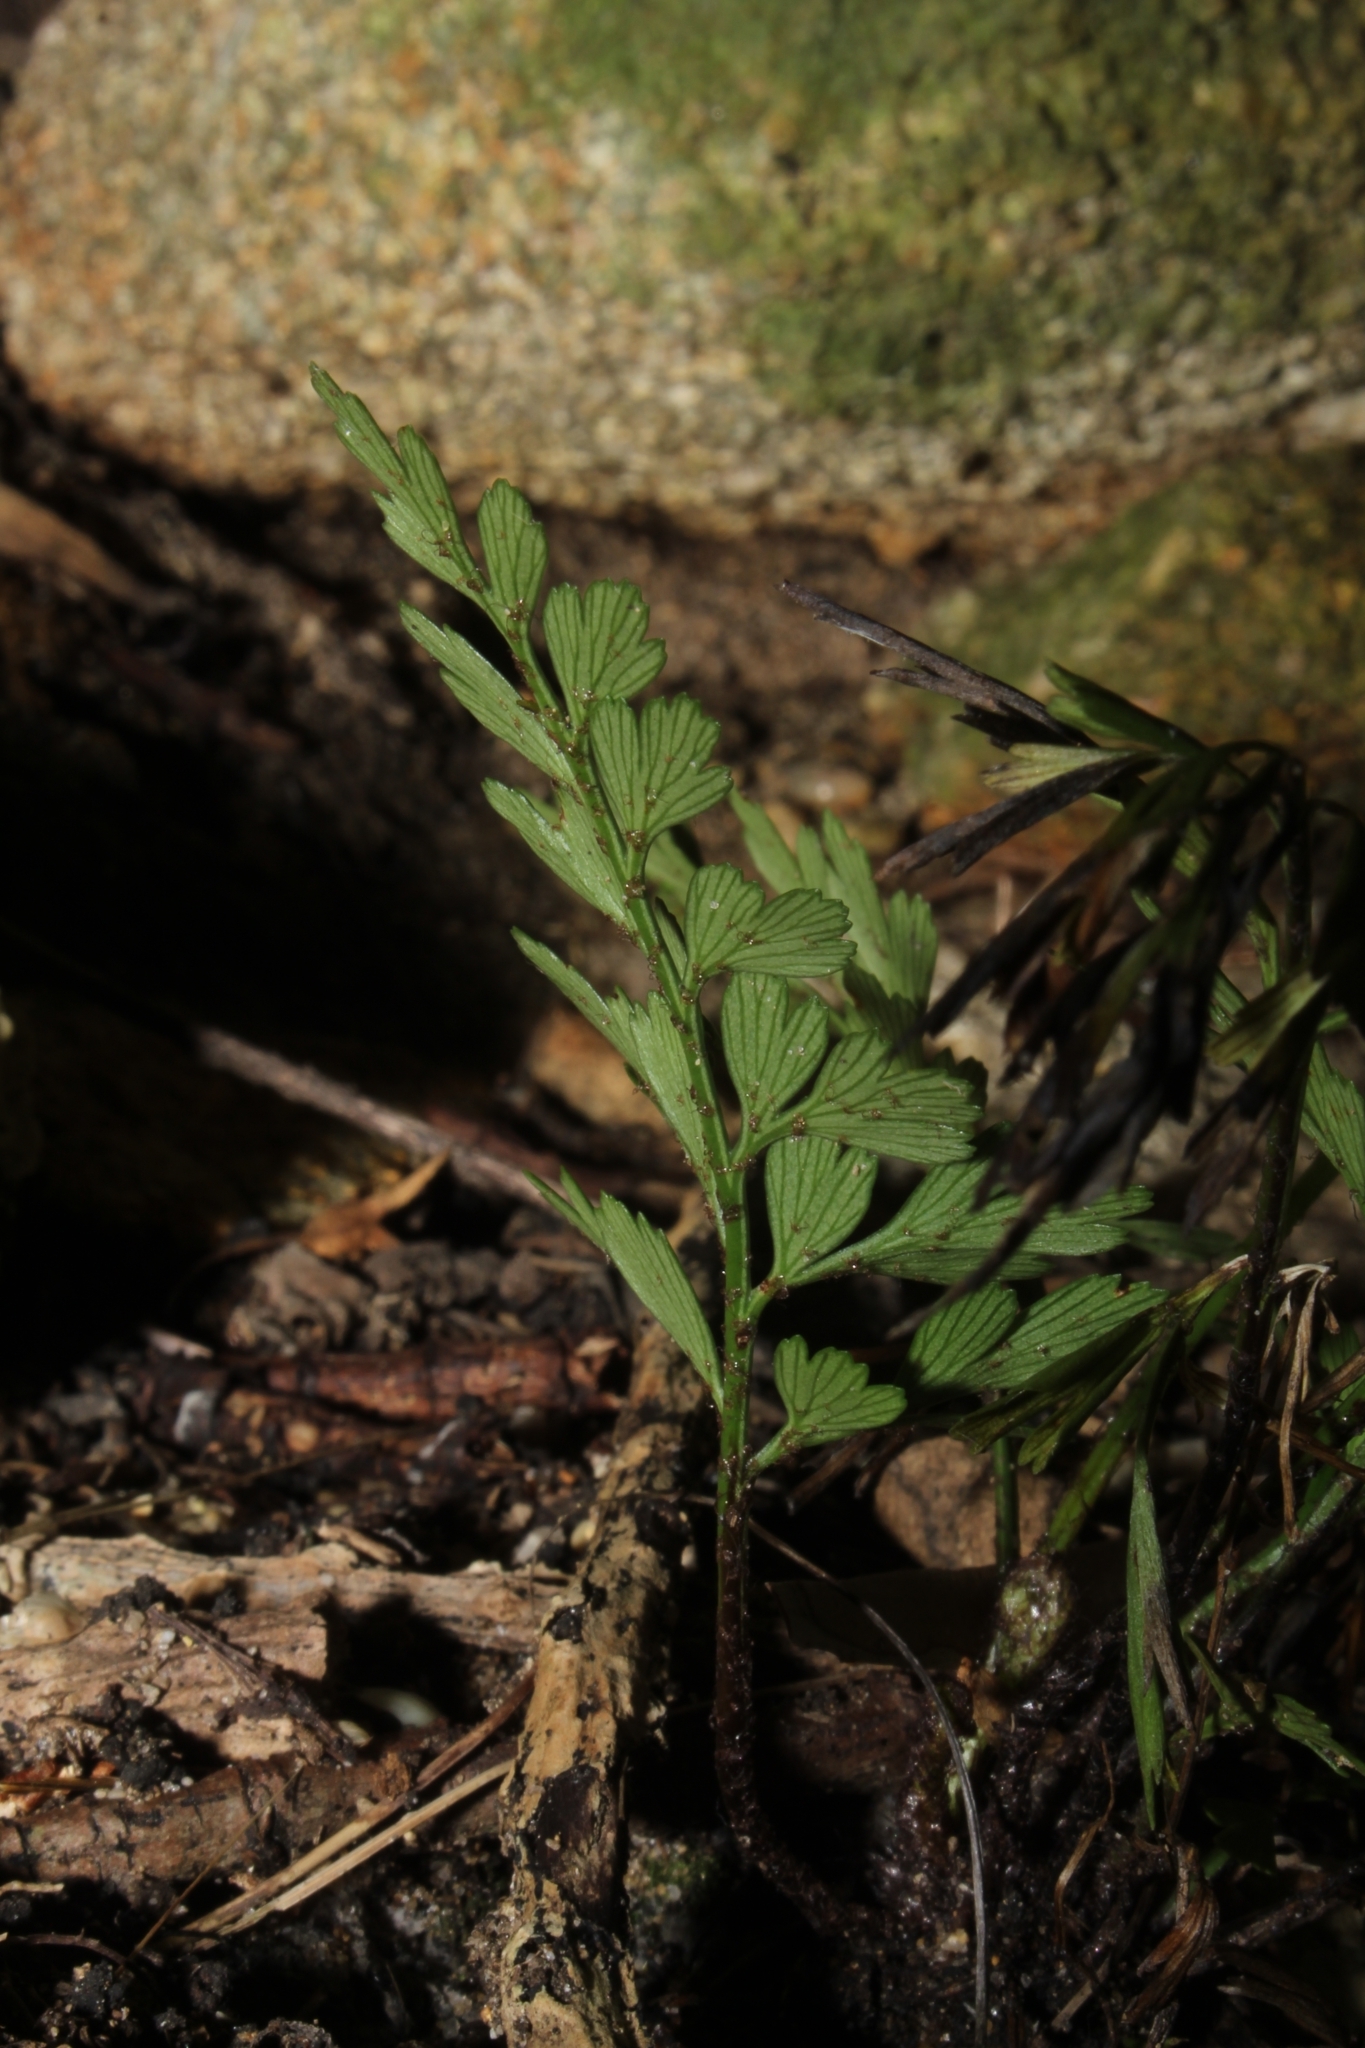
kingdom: Plantae
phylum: Tracheophyta
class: Polypodiopsida
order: Polypodiales
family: Aspleniaceae
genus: Asplenium
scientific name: Asplenium aethiopicum
